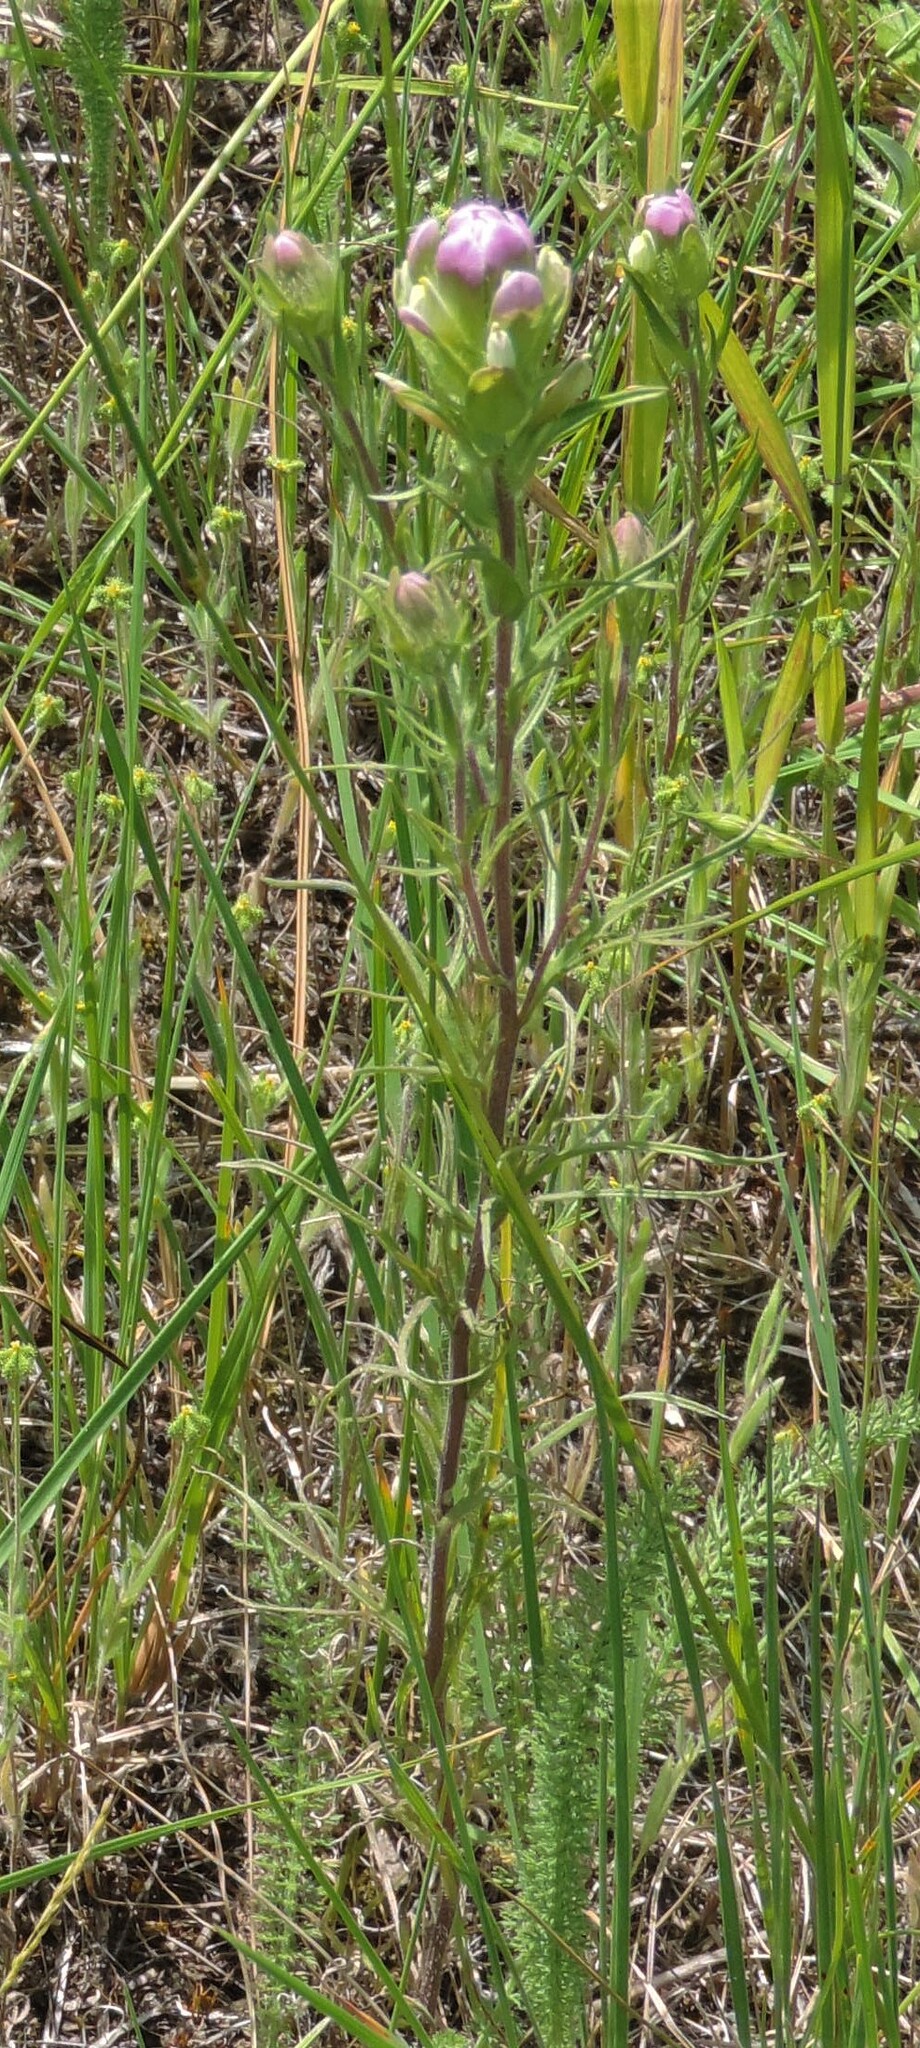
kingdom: Plantae
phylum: Tracheophyta
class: Magnoliopsida
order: Lamiales
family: Orobanchaceae
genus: Orthocarpus
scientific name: Orthocarpus tenuifolius
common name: Thin-leaved owl's-clover
